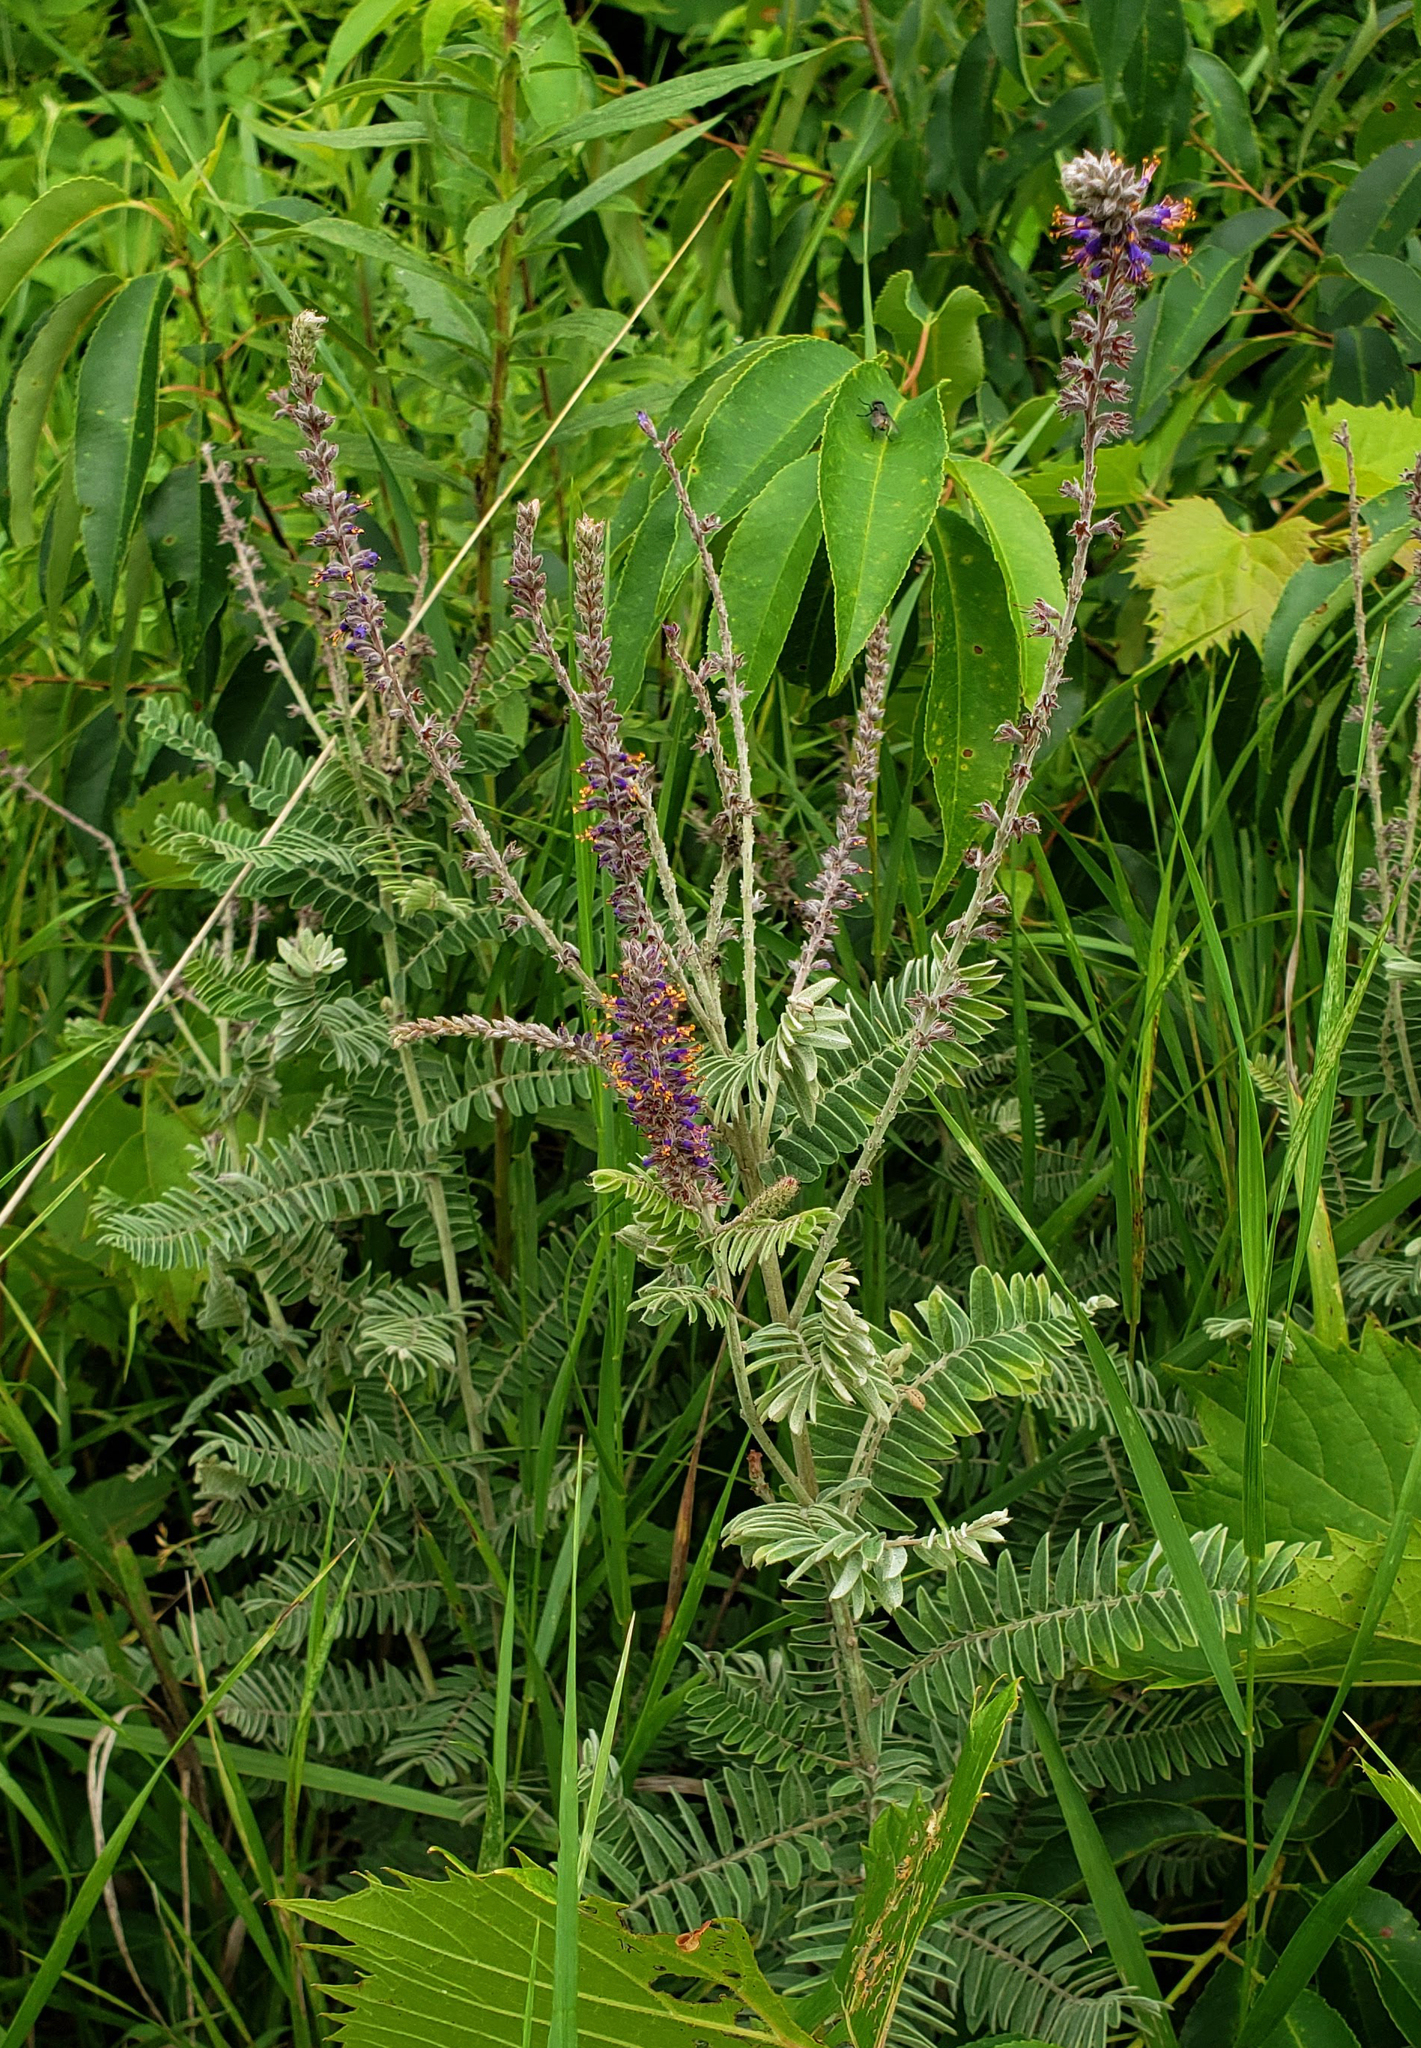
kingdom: Plantae
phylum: Tracheophyta
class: Magnoliopsida
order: Fabales
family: Fabaceae
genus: Amorpha
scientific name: Amorpha canescens
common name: Leadplant
